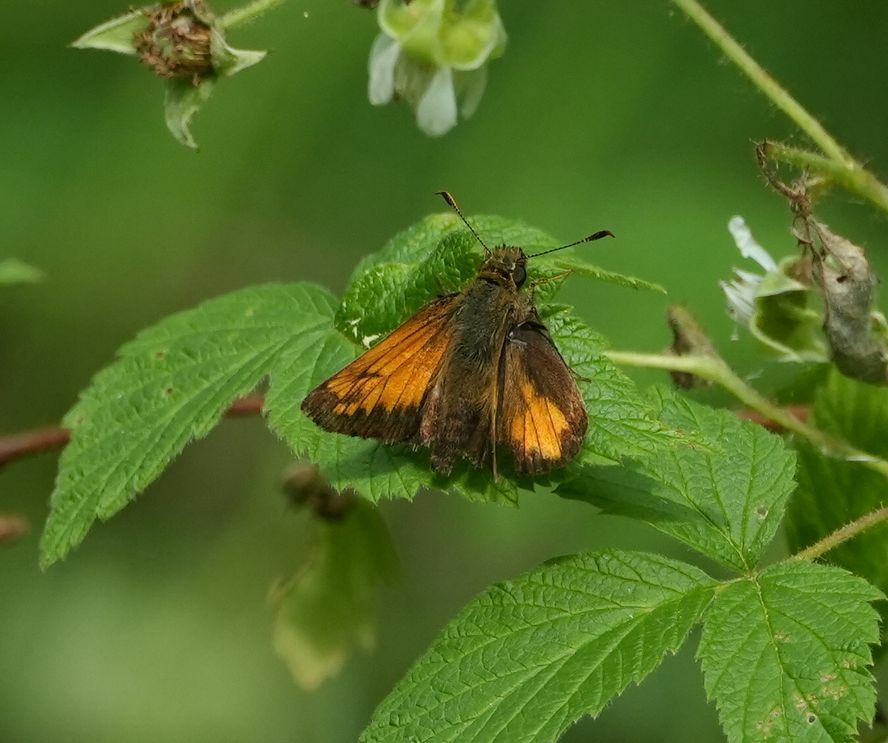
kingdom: Animalia
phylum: Arthropoda
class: Insecta
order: Lepidoptera
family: Hesperiidae
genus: Lon
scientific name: Lon hobomok
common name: Hobomok skipper
